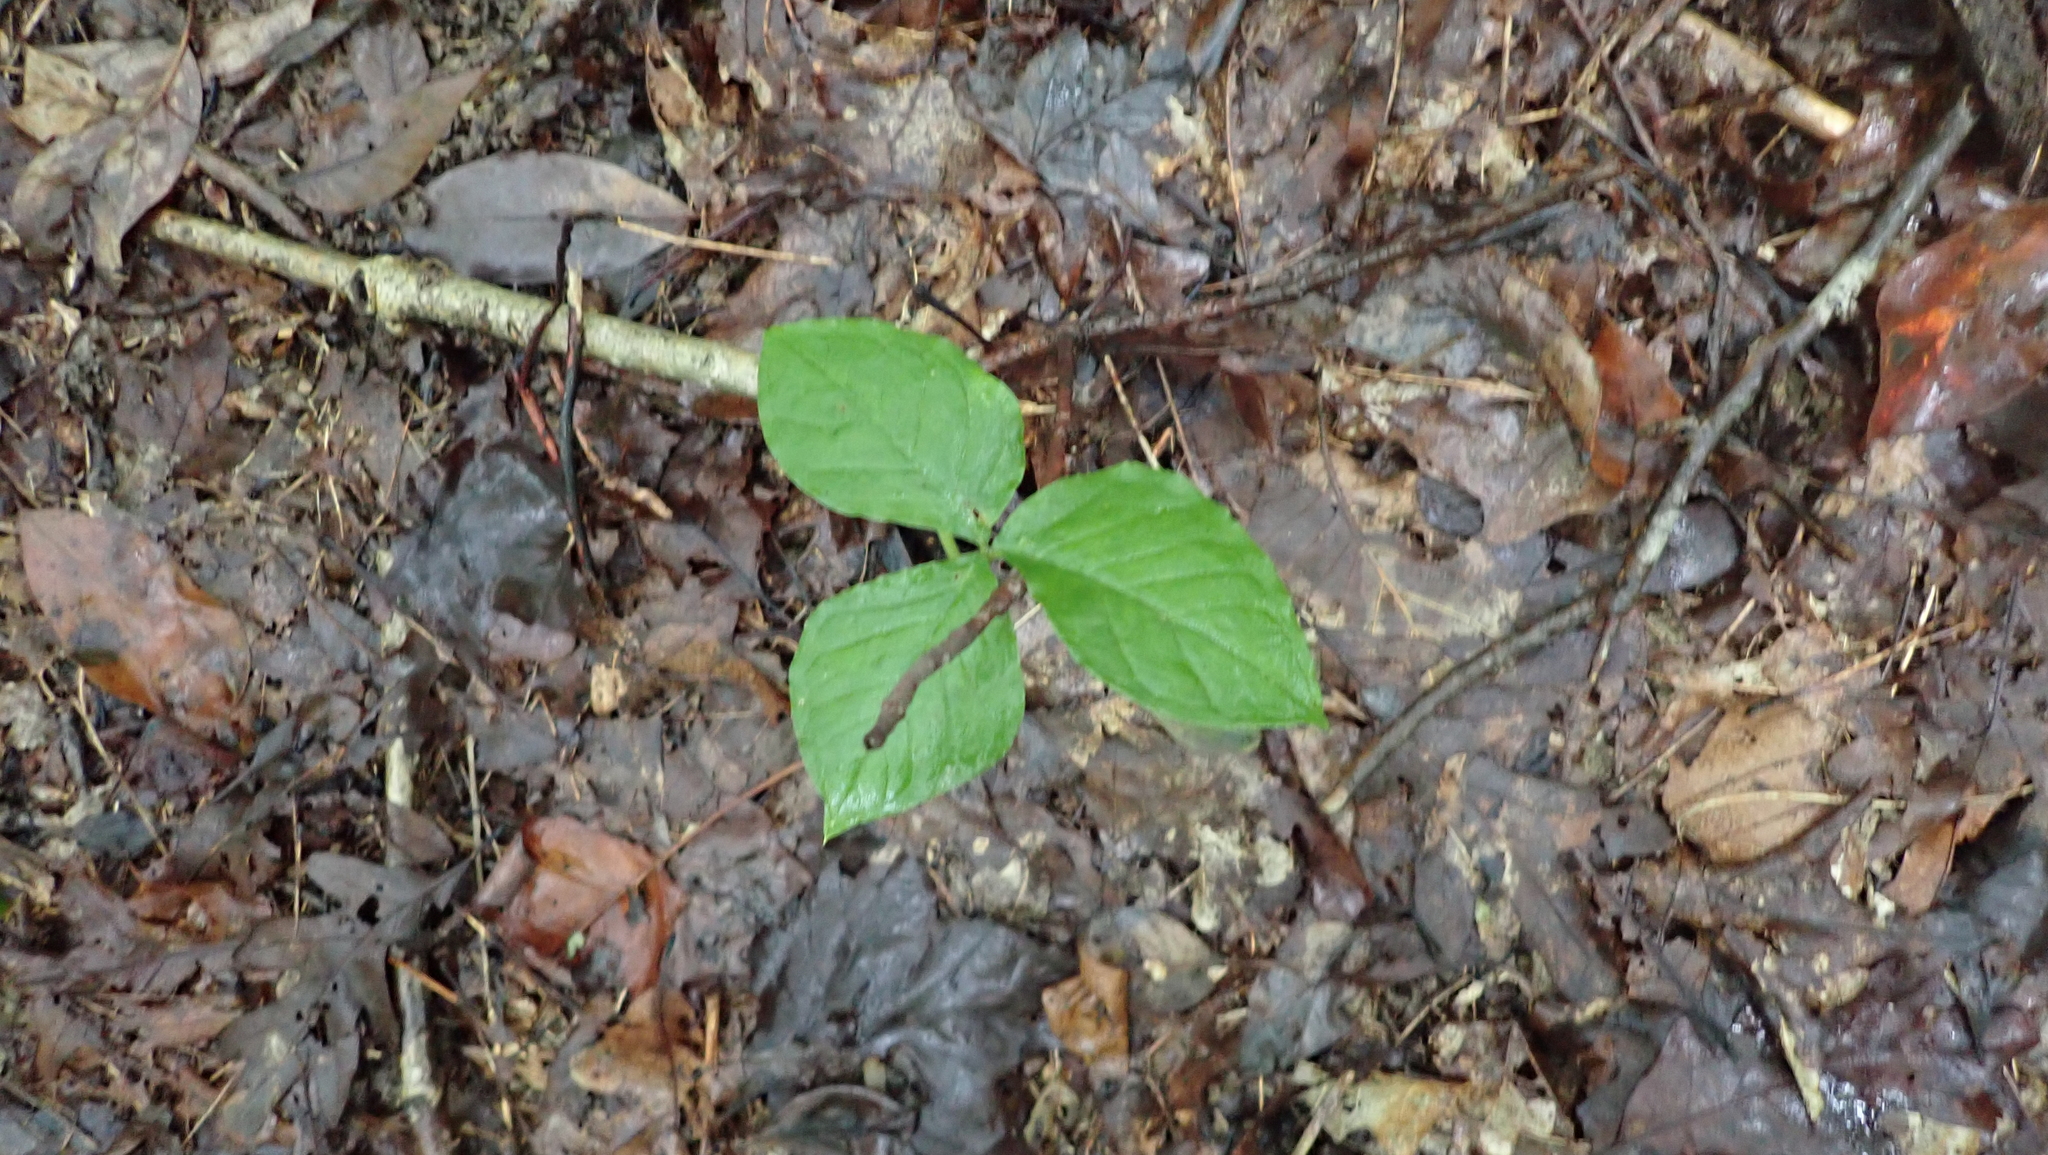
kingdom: Plantae
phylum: Tracheophyta
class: Liliopsida
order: Alismatales
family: Araceae
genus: Arisaema
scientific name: Arisaema triphyllum
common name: Jack-in-the-pulpit
